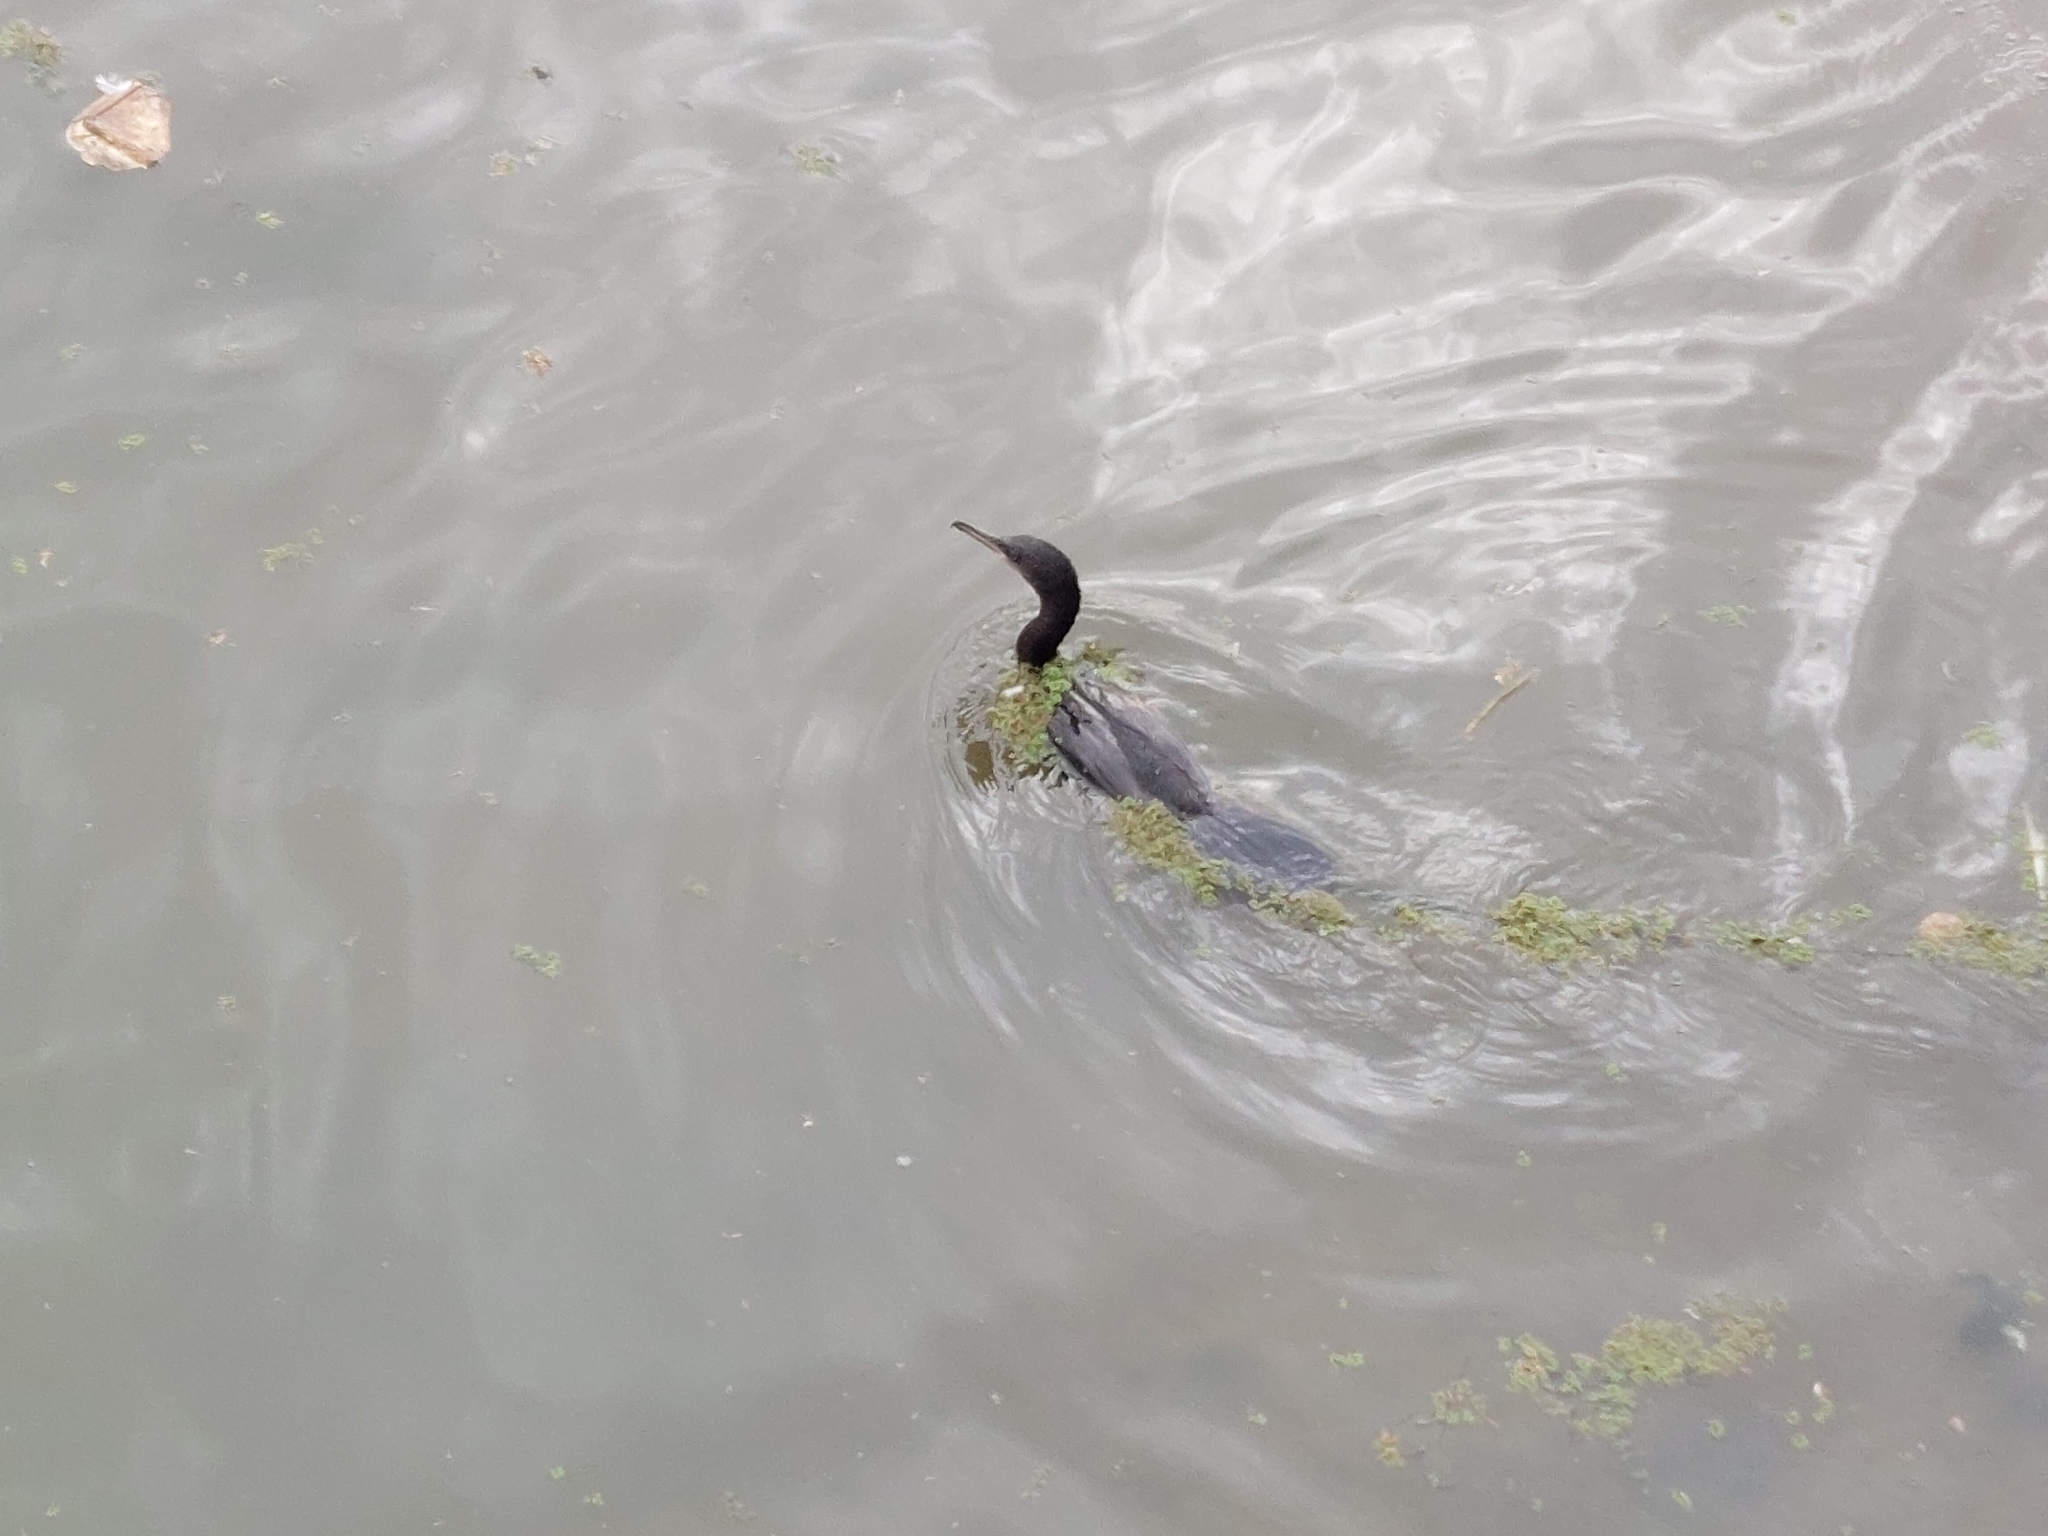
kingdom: Animalia
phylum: Chordata
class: Aves
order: Suliformes
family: Phalacrocoracidae
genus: Phalacrocorax
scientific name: Phalacrocorax brasilianus
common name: Neotropic cormorant
